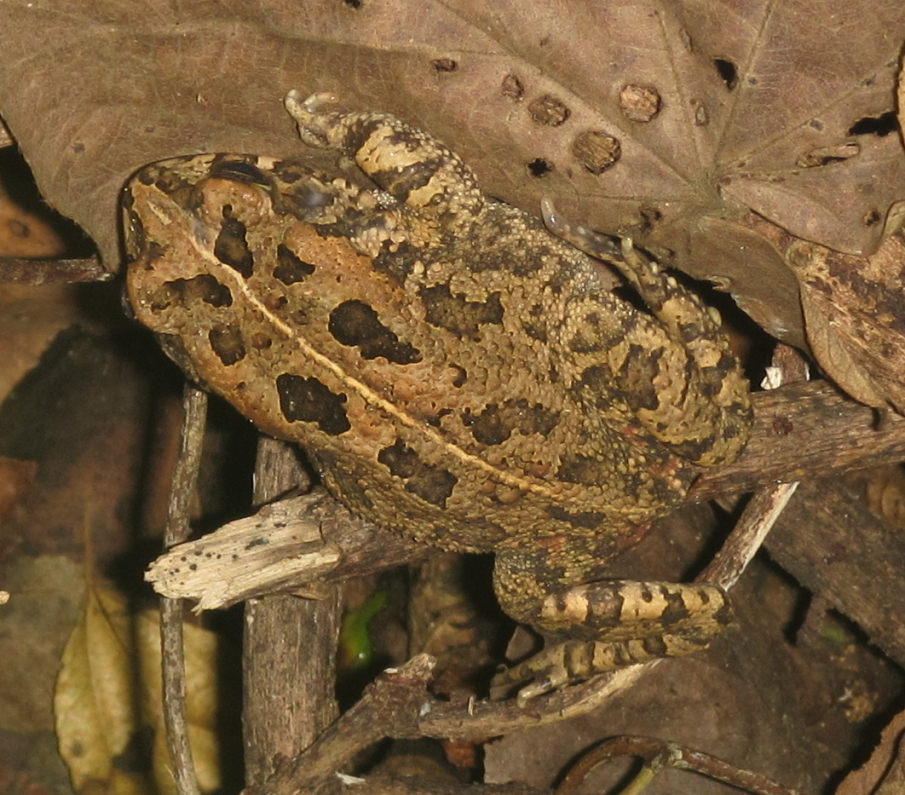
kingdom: Animalia
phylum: Chordata
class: Amphibia
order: Anura
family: Bufonidae
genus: Sclerophrys
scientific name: Sclerophrys gutturalis
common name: African common toad
